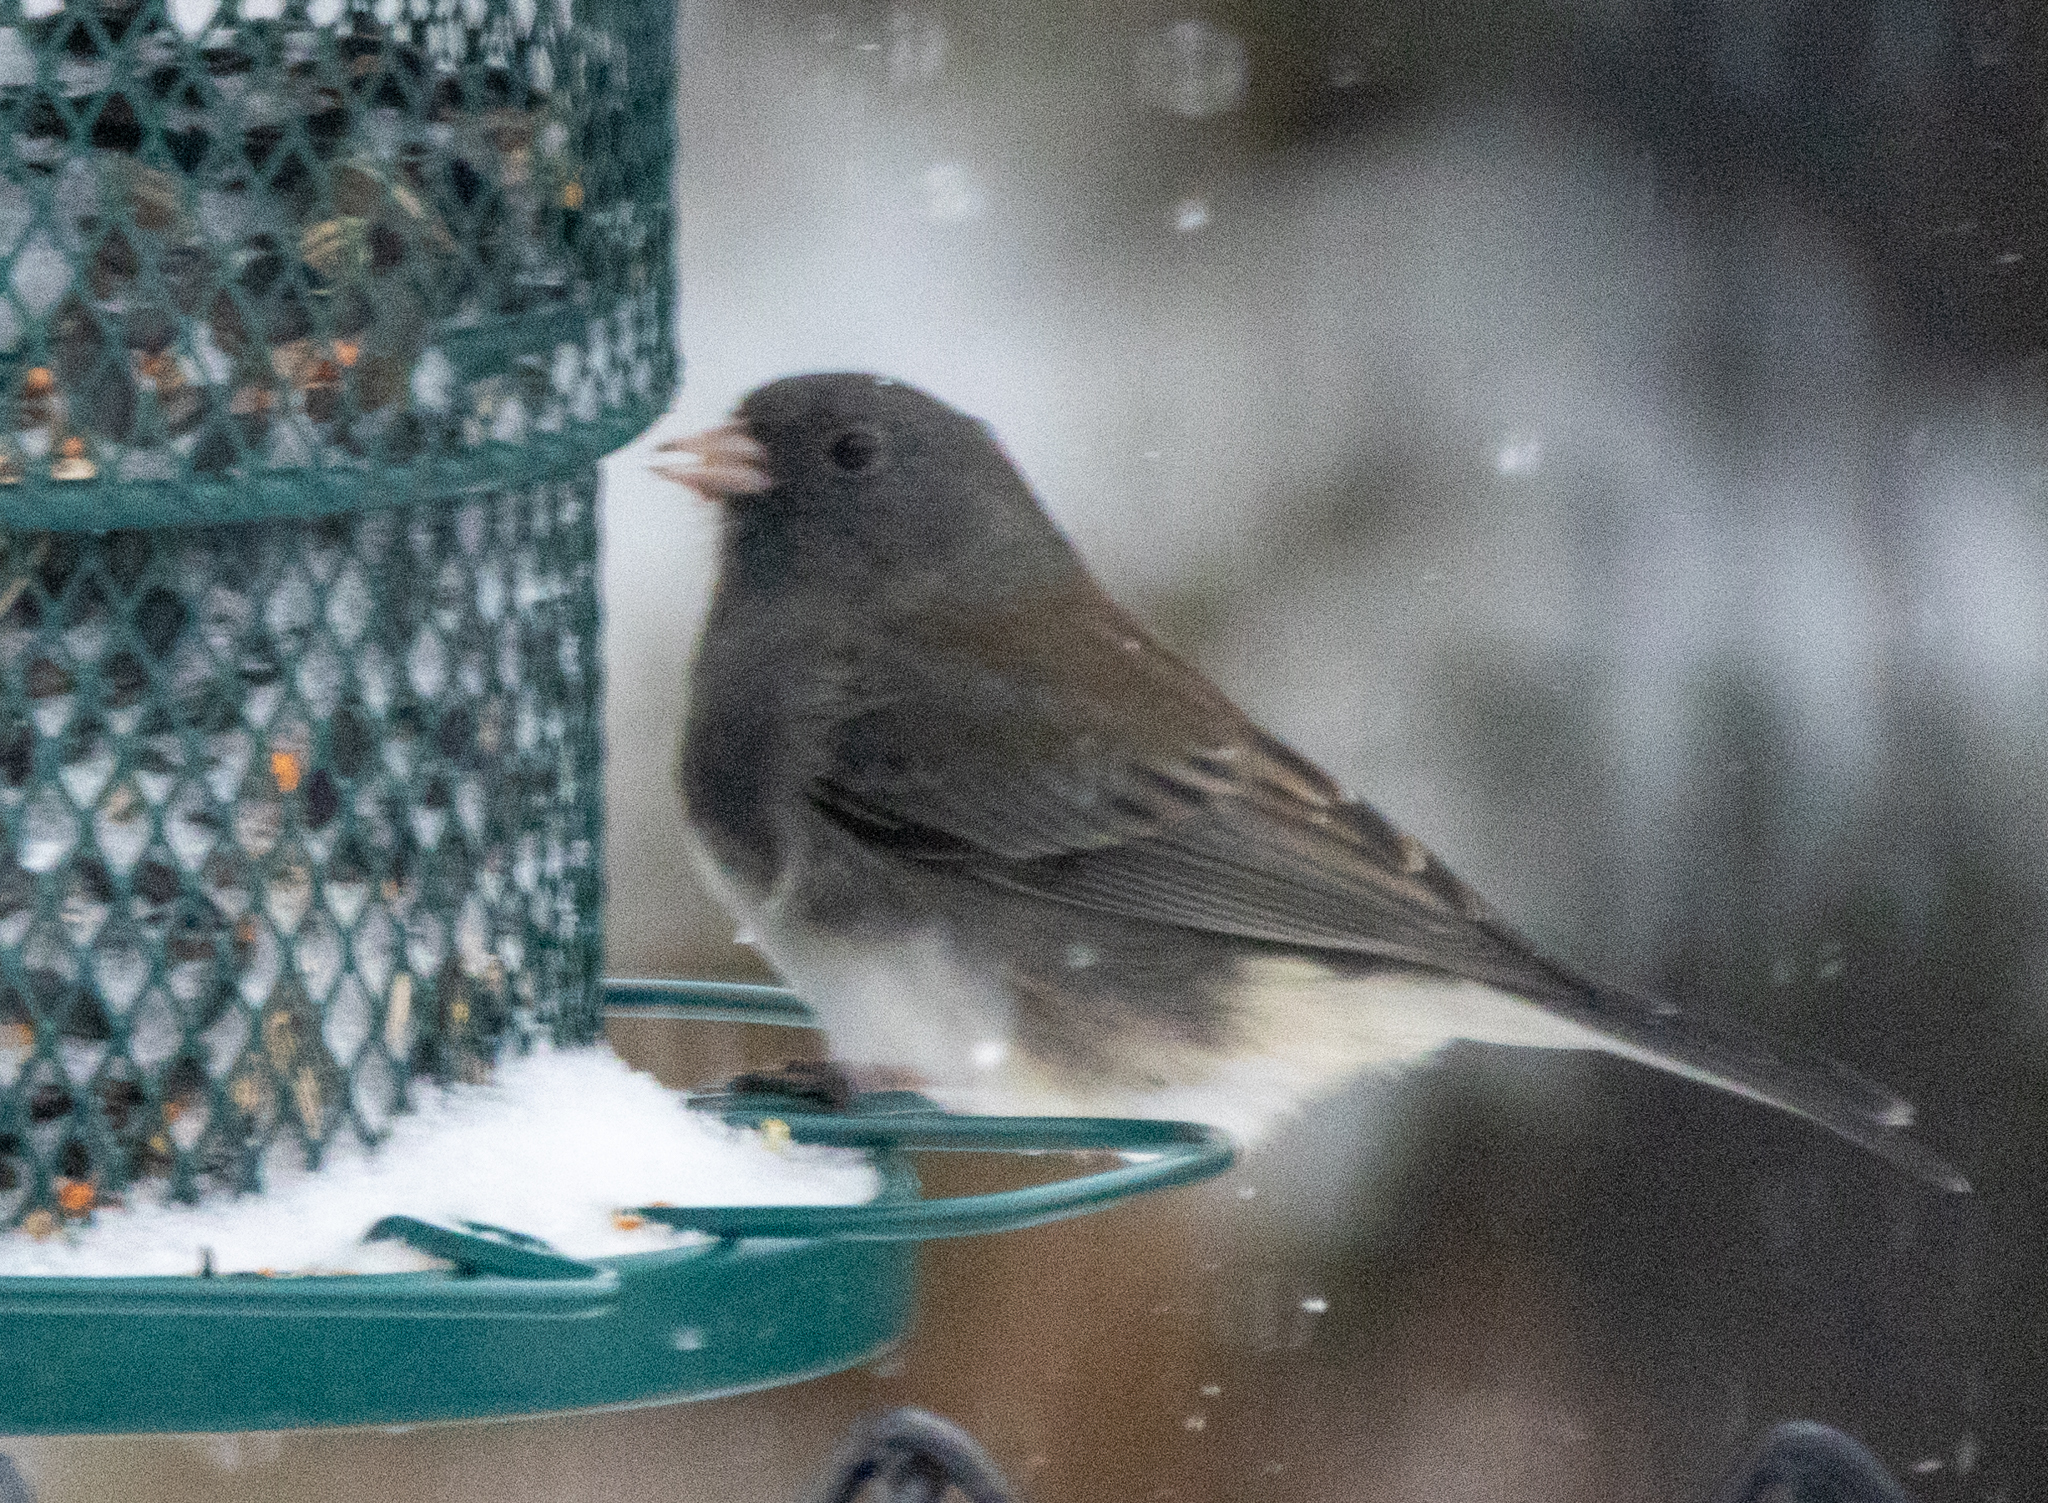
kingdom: Animalia
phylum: Chordata
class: Aves
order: Passeriformes
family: Passerellidae
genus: Junco
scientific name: Junco hyemalis
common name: Dark-eyed junco
